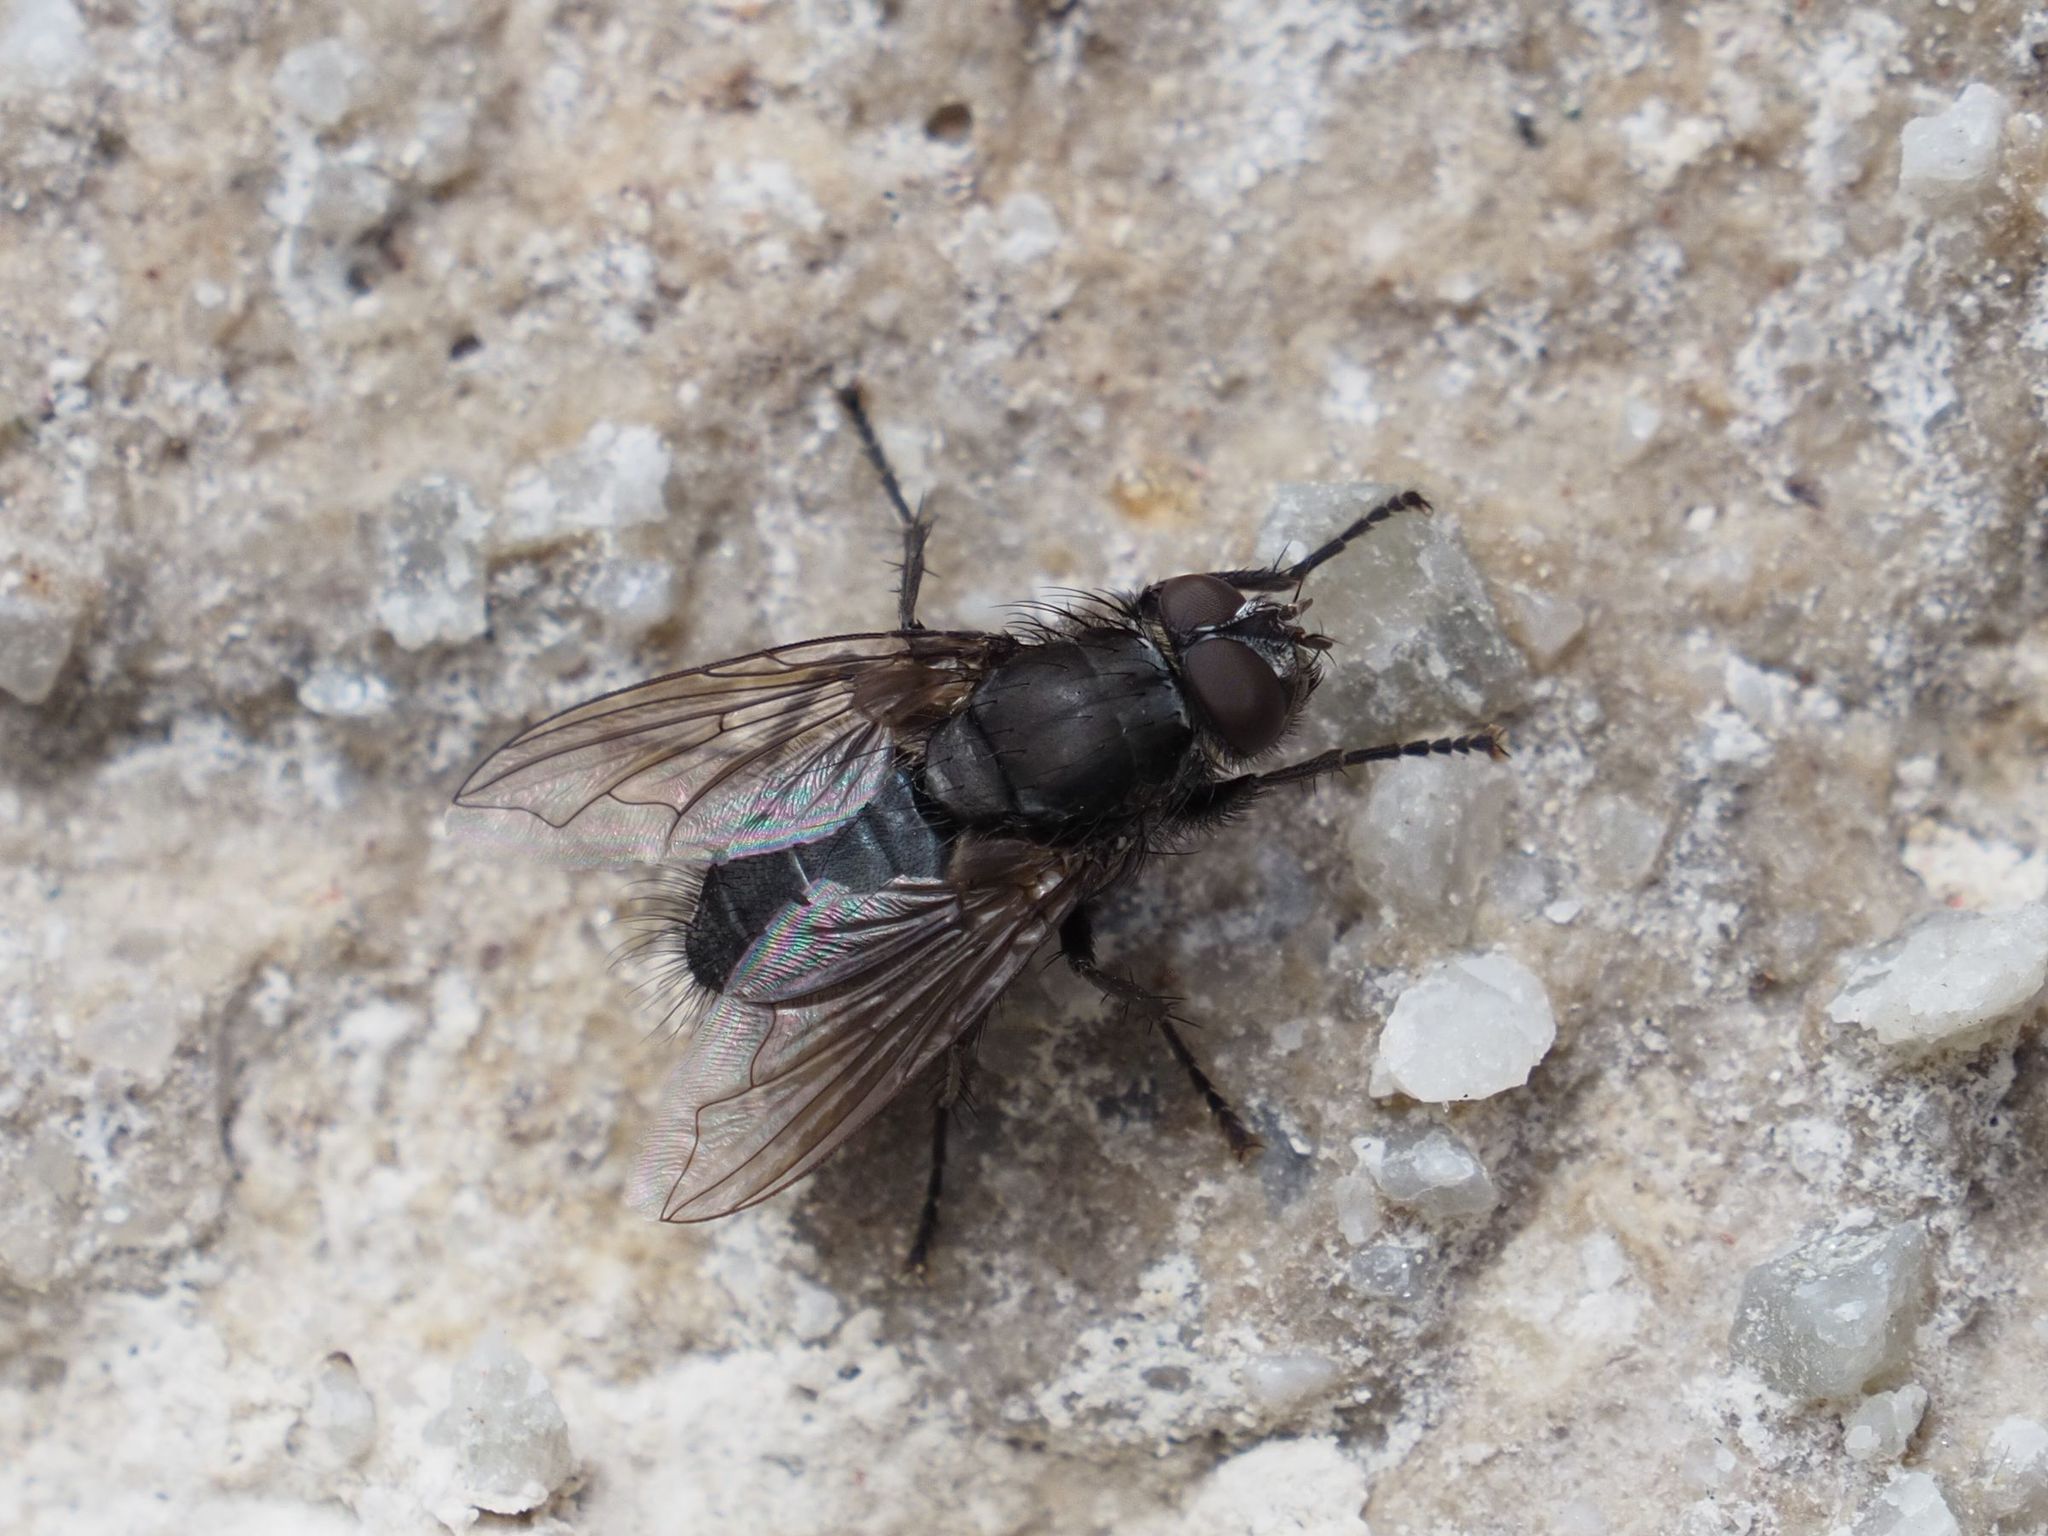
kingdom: Animalia
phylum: Arthropoda
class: Insecta
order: Diptera
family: Polleniidae
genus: Pollenia
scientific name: Pollenia vagabunda
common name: Vagabund cluster fly
